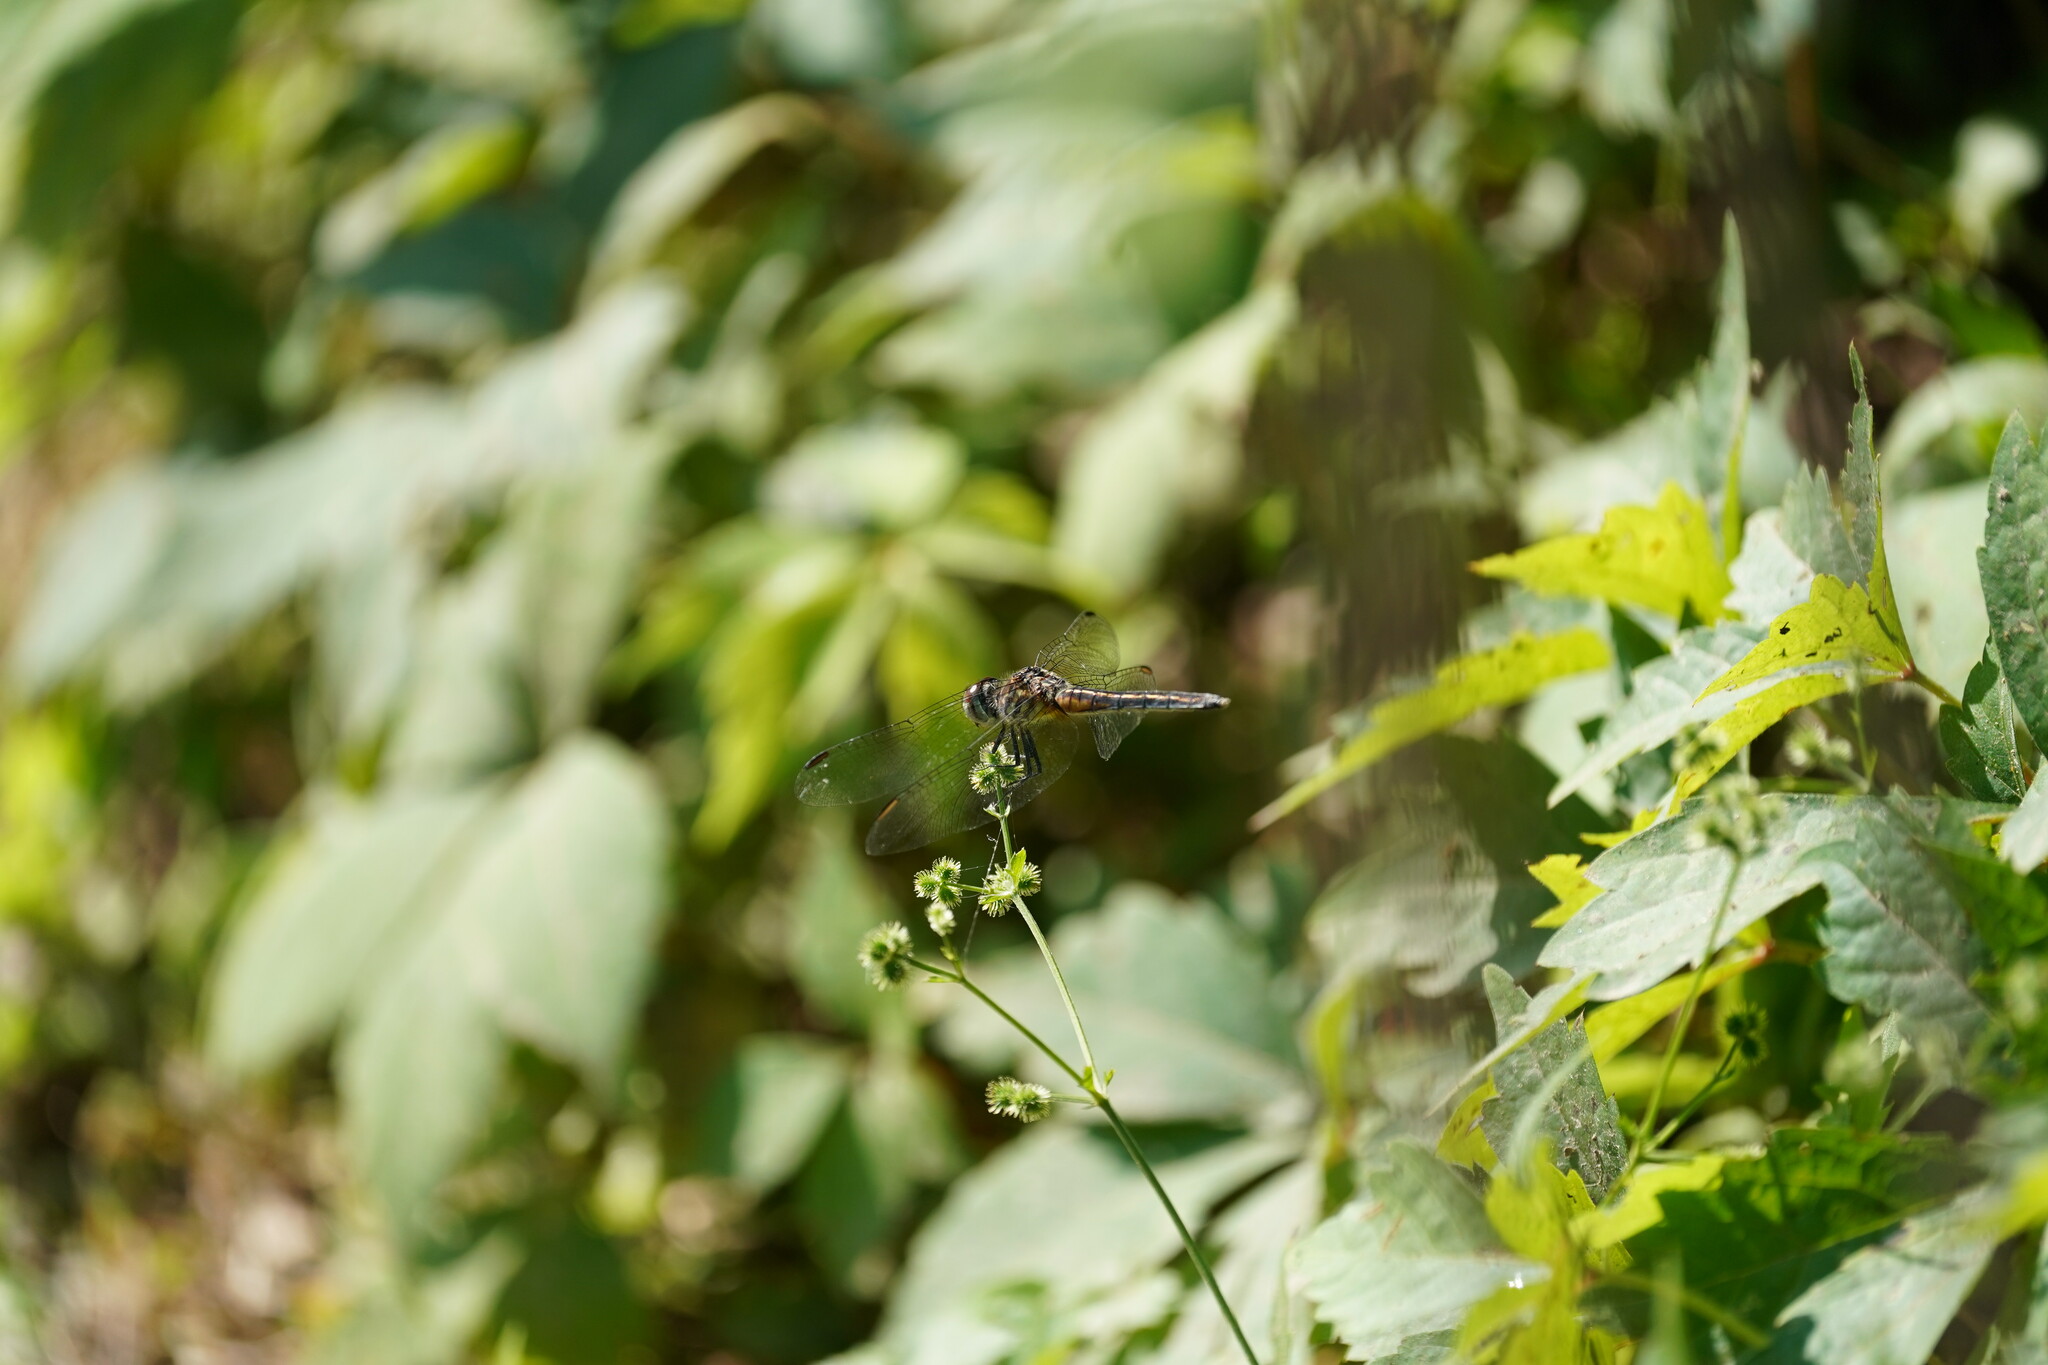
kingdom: Animalia
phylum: Arthropoda
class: Insecta
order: Odonata
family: Libellulidae
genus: Pachydiplax
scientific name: Pachydiplax longipennis
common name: Blue dasher
